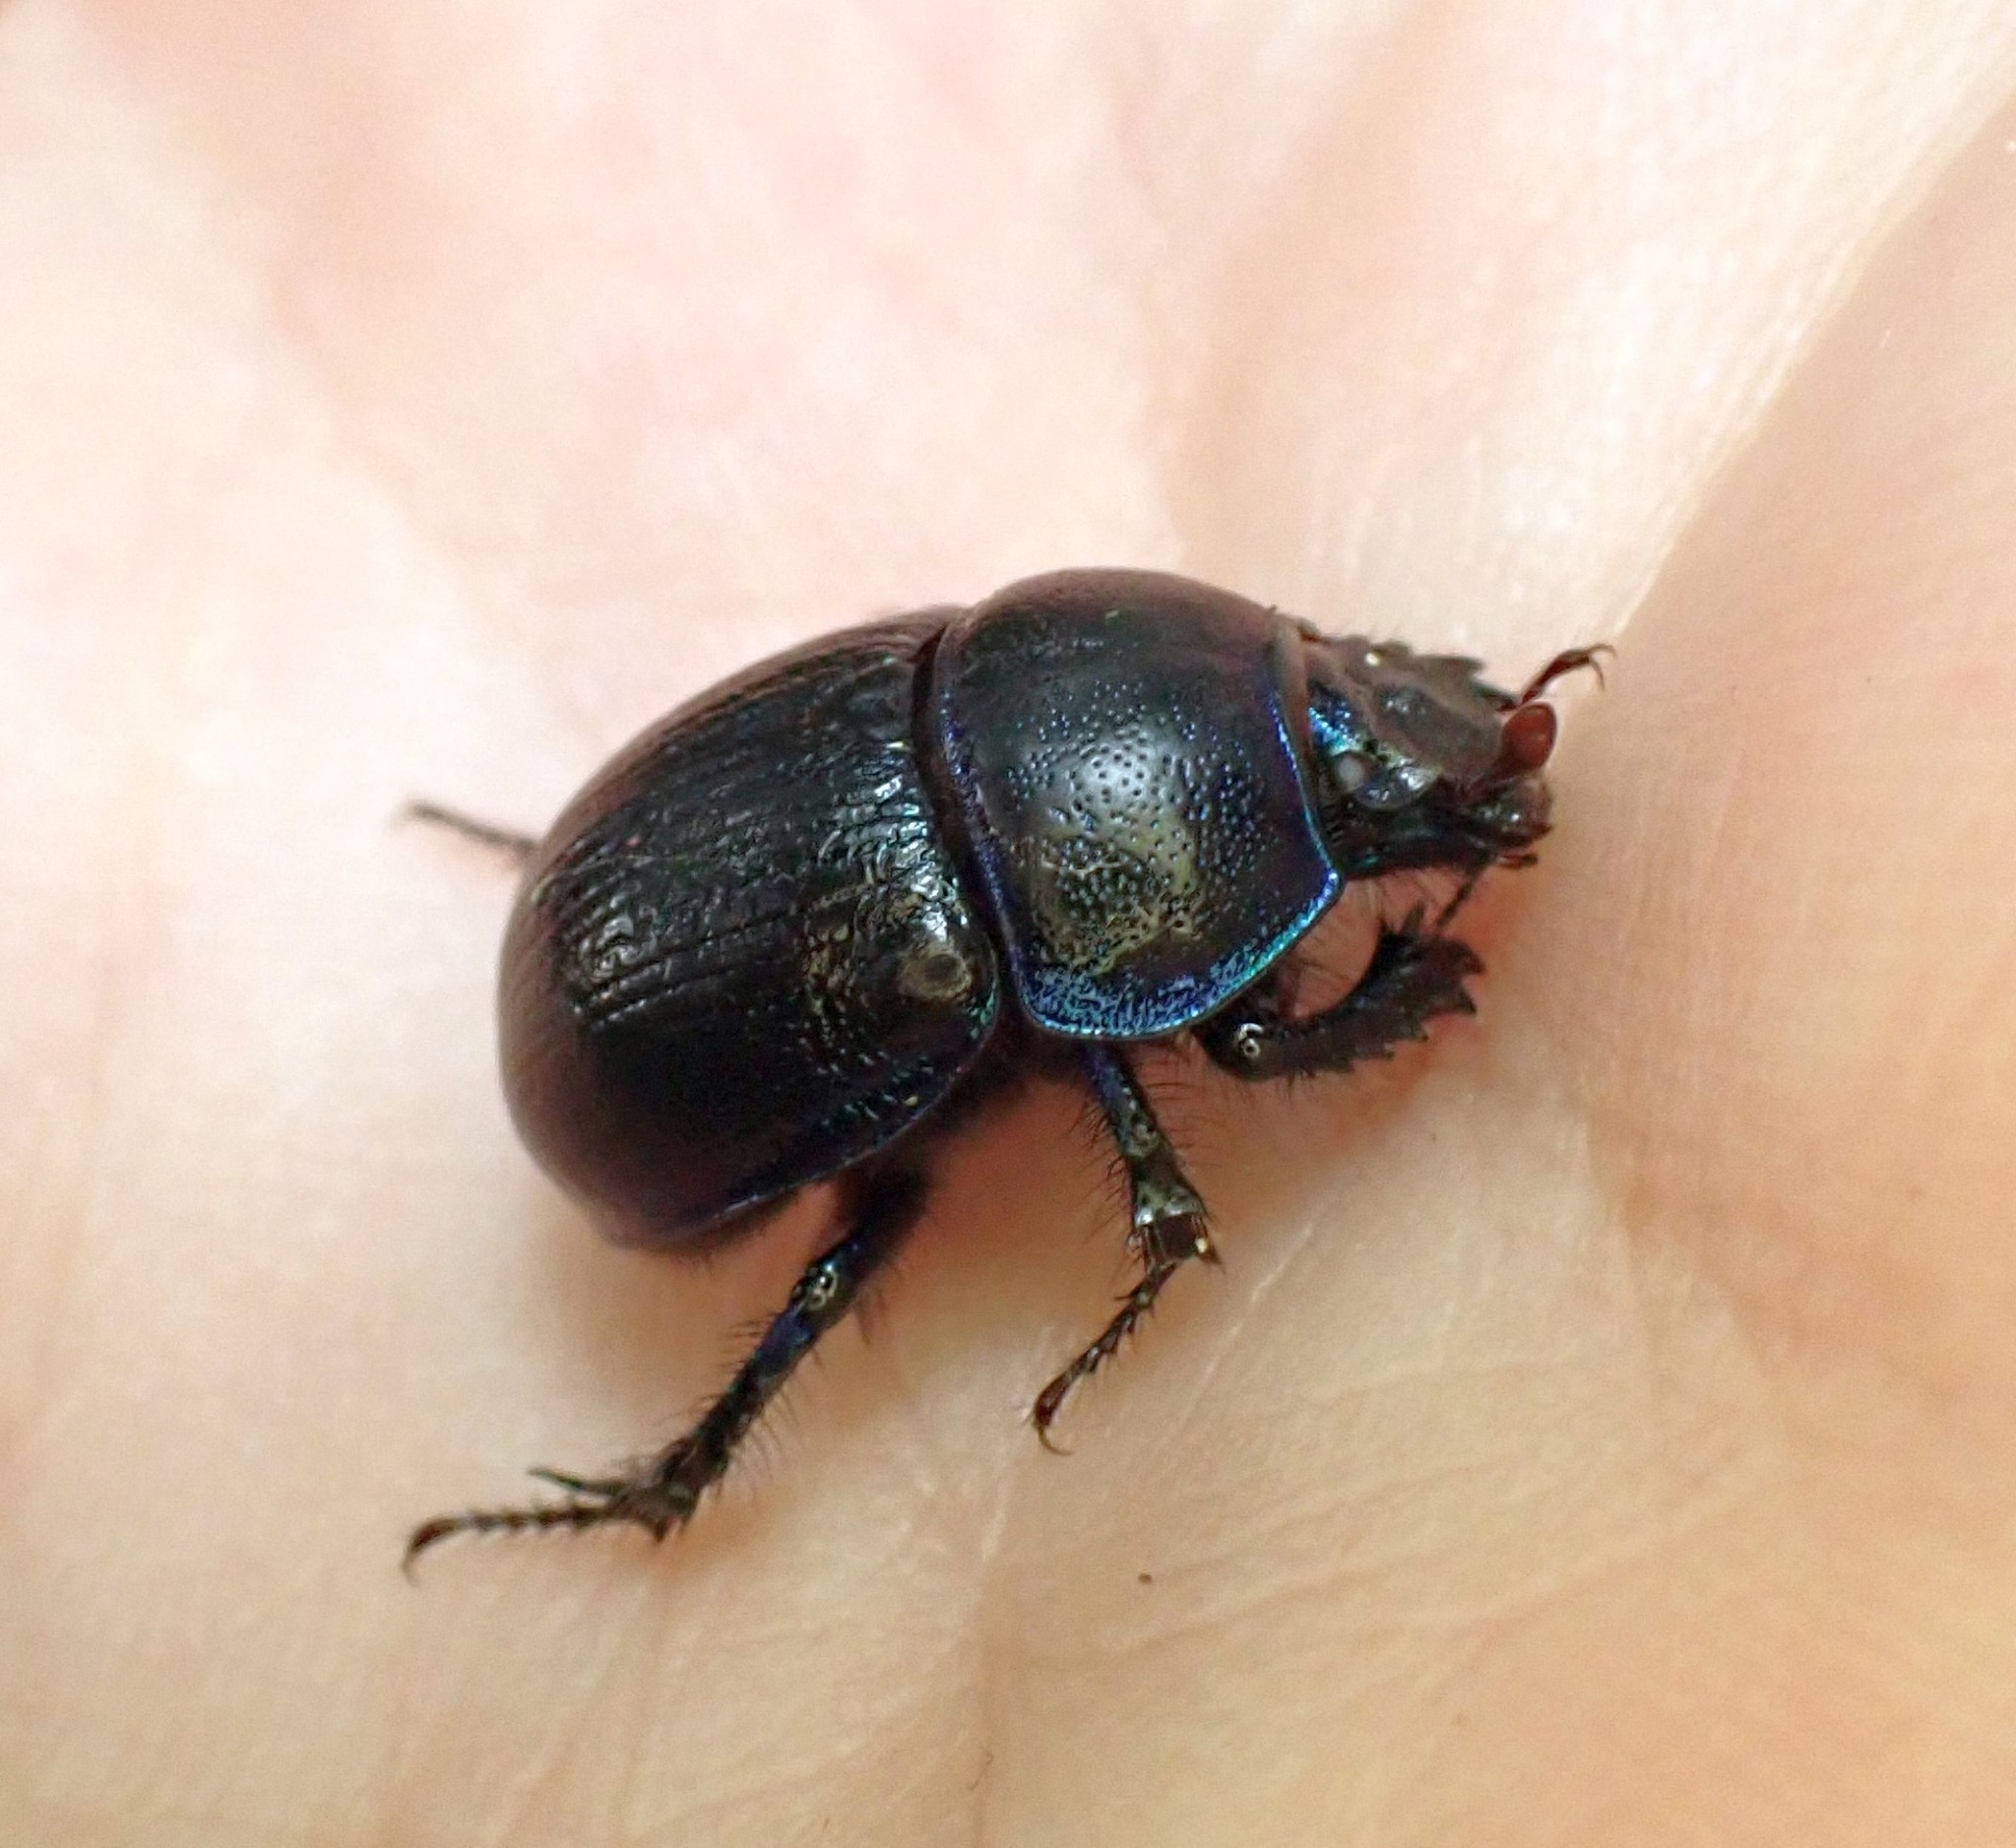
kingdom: Animalia
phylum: Arthropoda
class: Insecta
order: Coleoptera
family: Geotrupidae
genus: Anoplotrupes
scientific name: Anoplotrupes stercorosus
